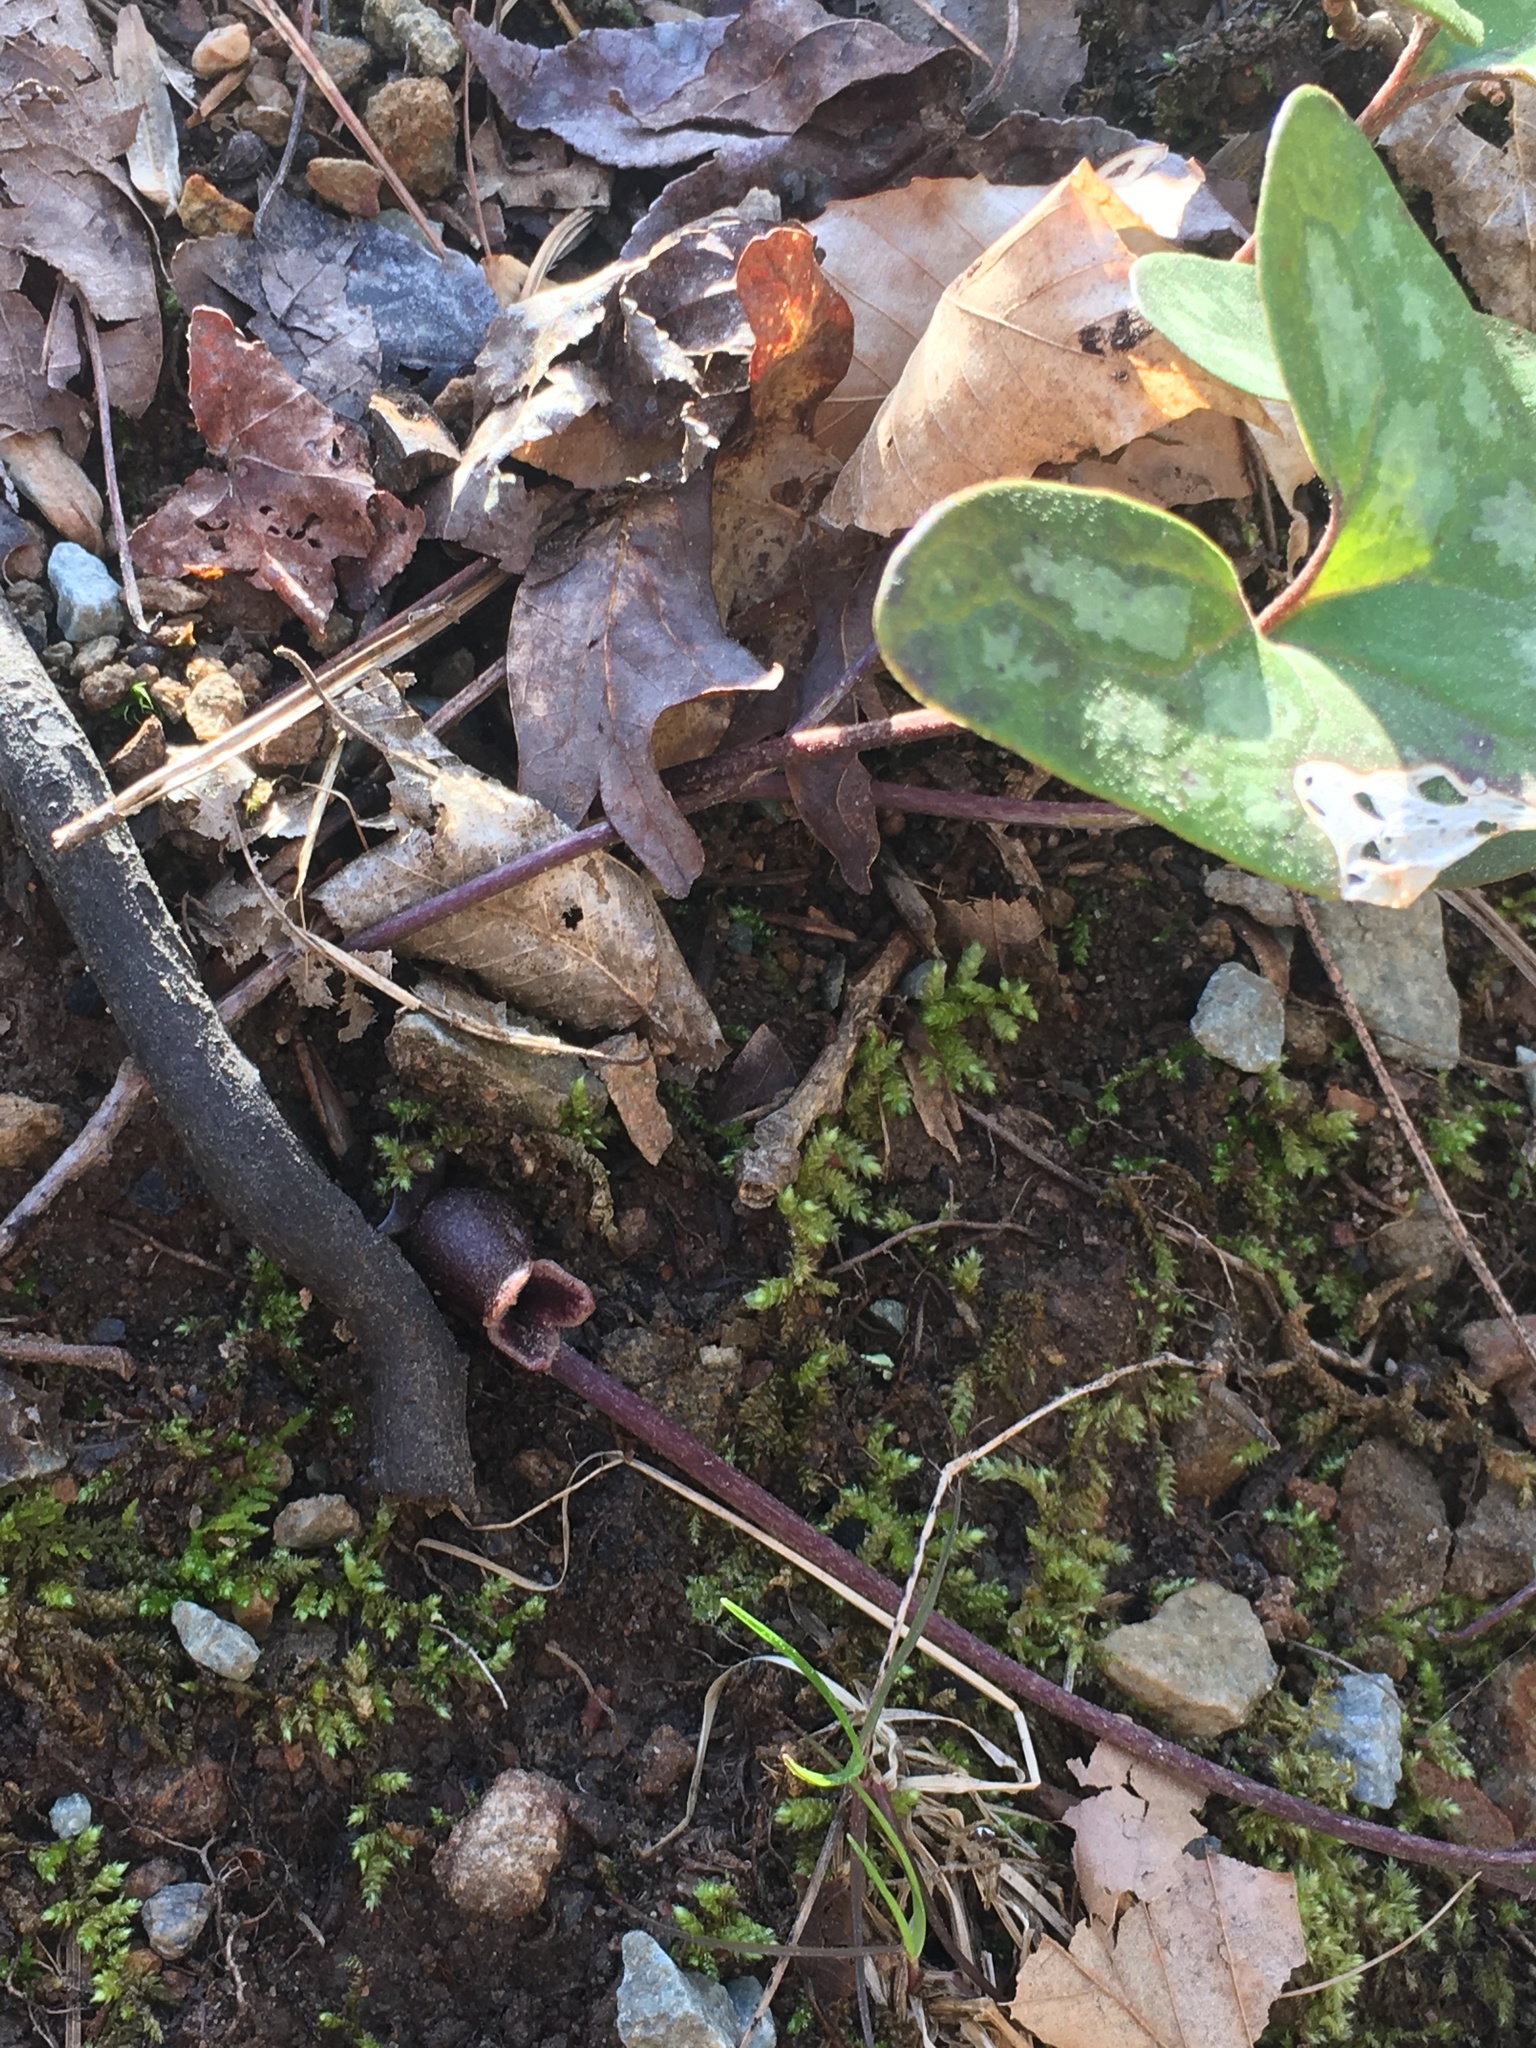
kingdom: Plantae
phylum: Tracheophyta
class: Magnoliopsida
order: Piperales
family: Aristolochiaceae
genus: Hexastylis
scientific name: Hexastylis arifolia
